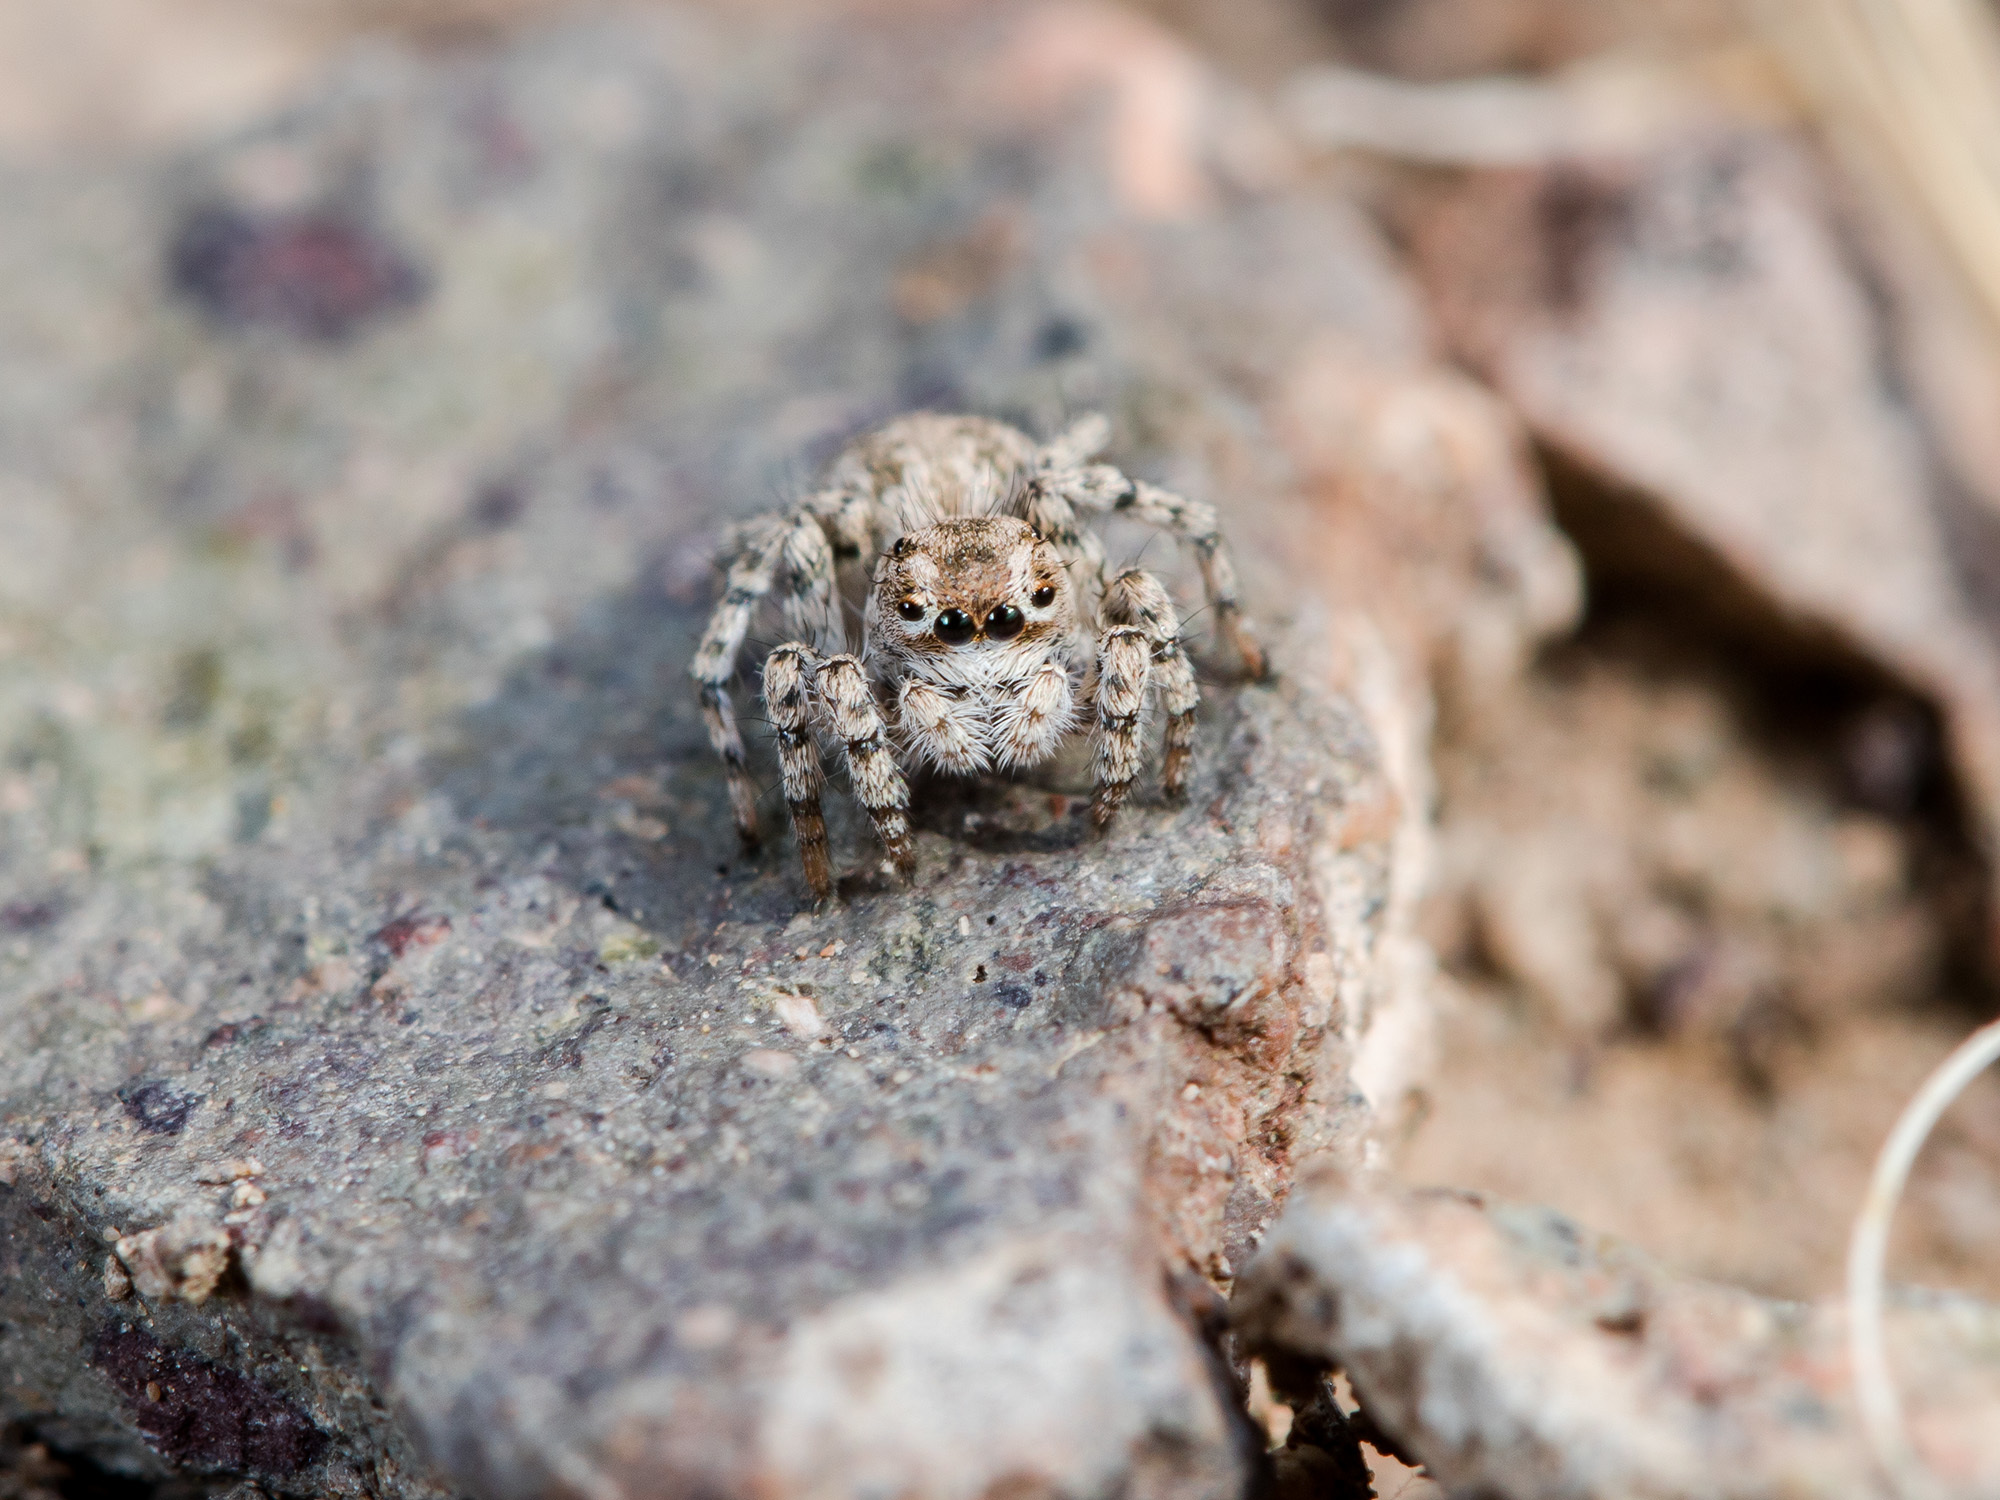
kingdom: Animalia
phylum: Arthropoda
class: Arachnida
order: Araneae
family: Salticidae
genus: Aelurillus
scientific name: Aelurillus dubatolovi
